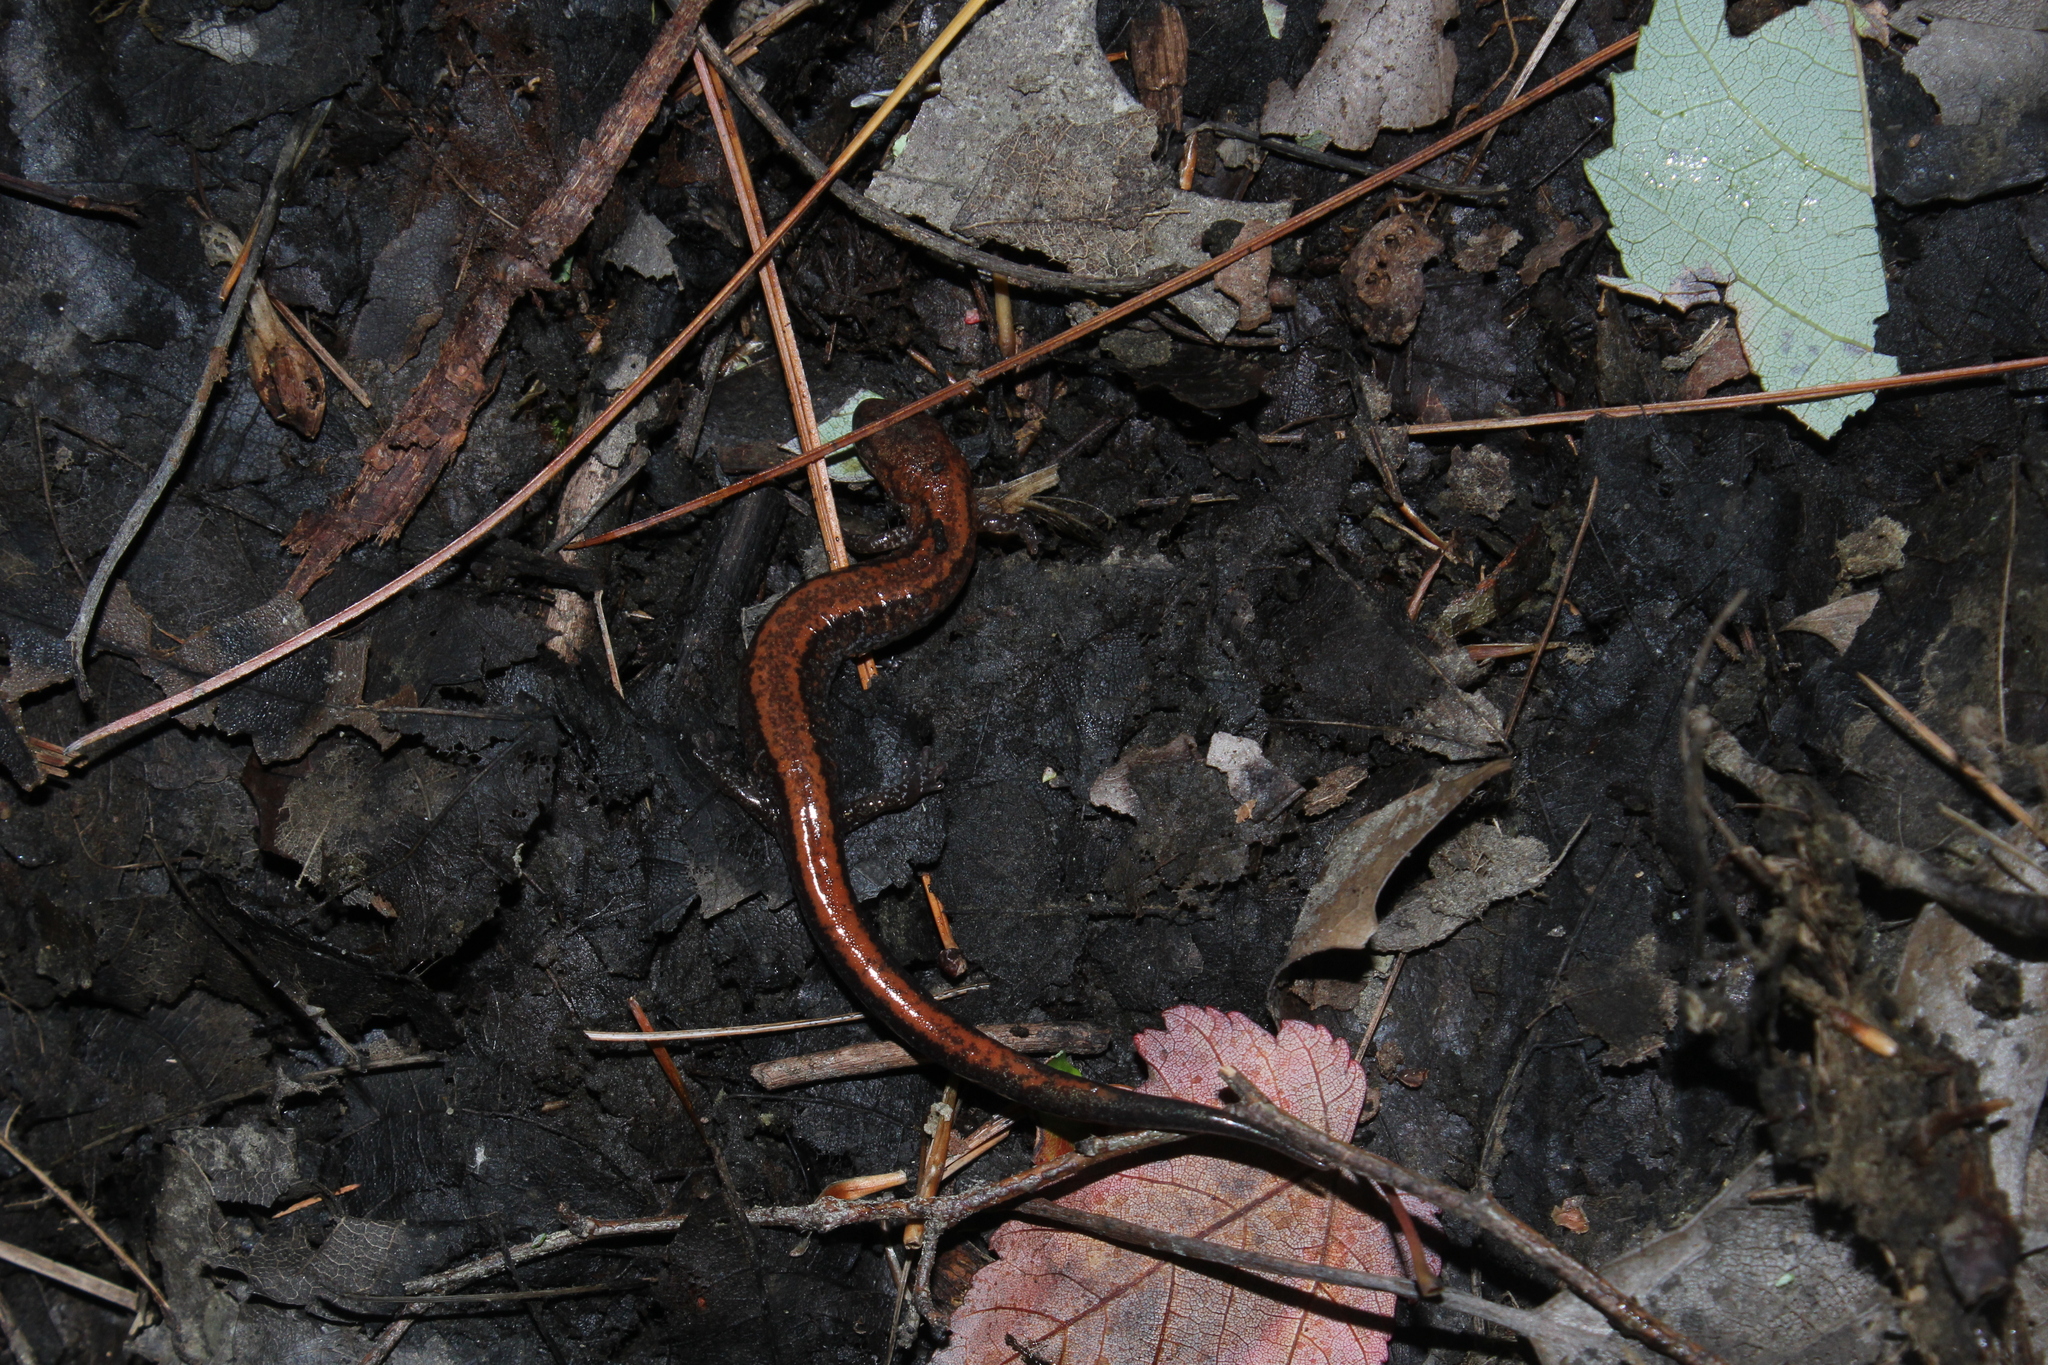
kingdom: Animalia
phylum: Chordata
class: Amphibia
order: Caudata
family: Plethodontidae
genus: Plethodon
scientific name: Plethodon cinereus
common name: Redback salamander
